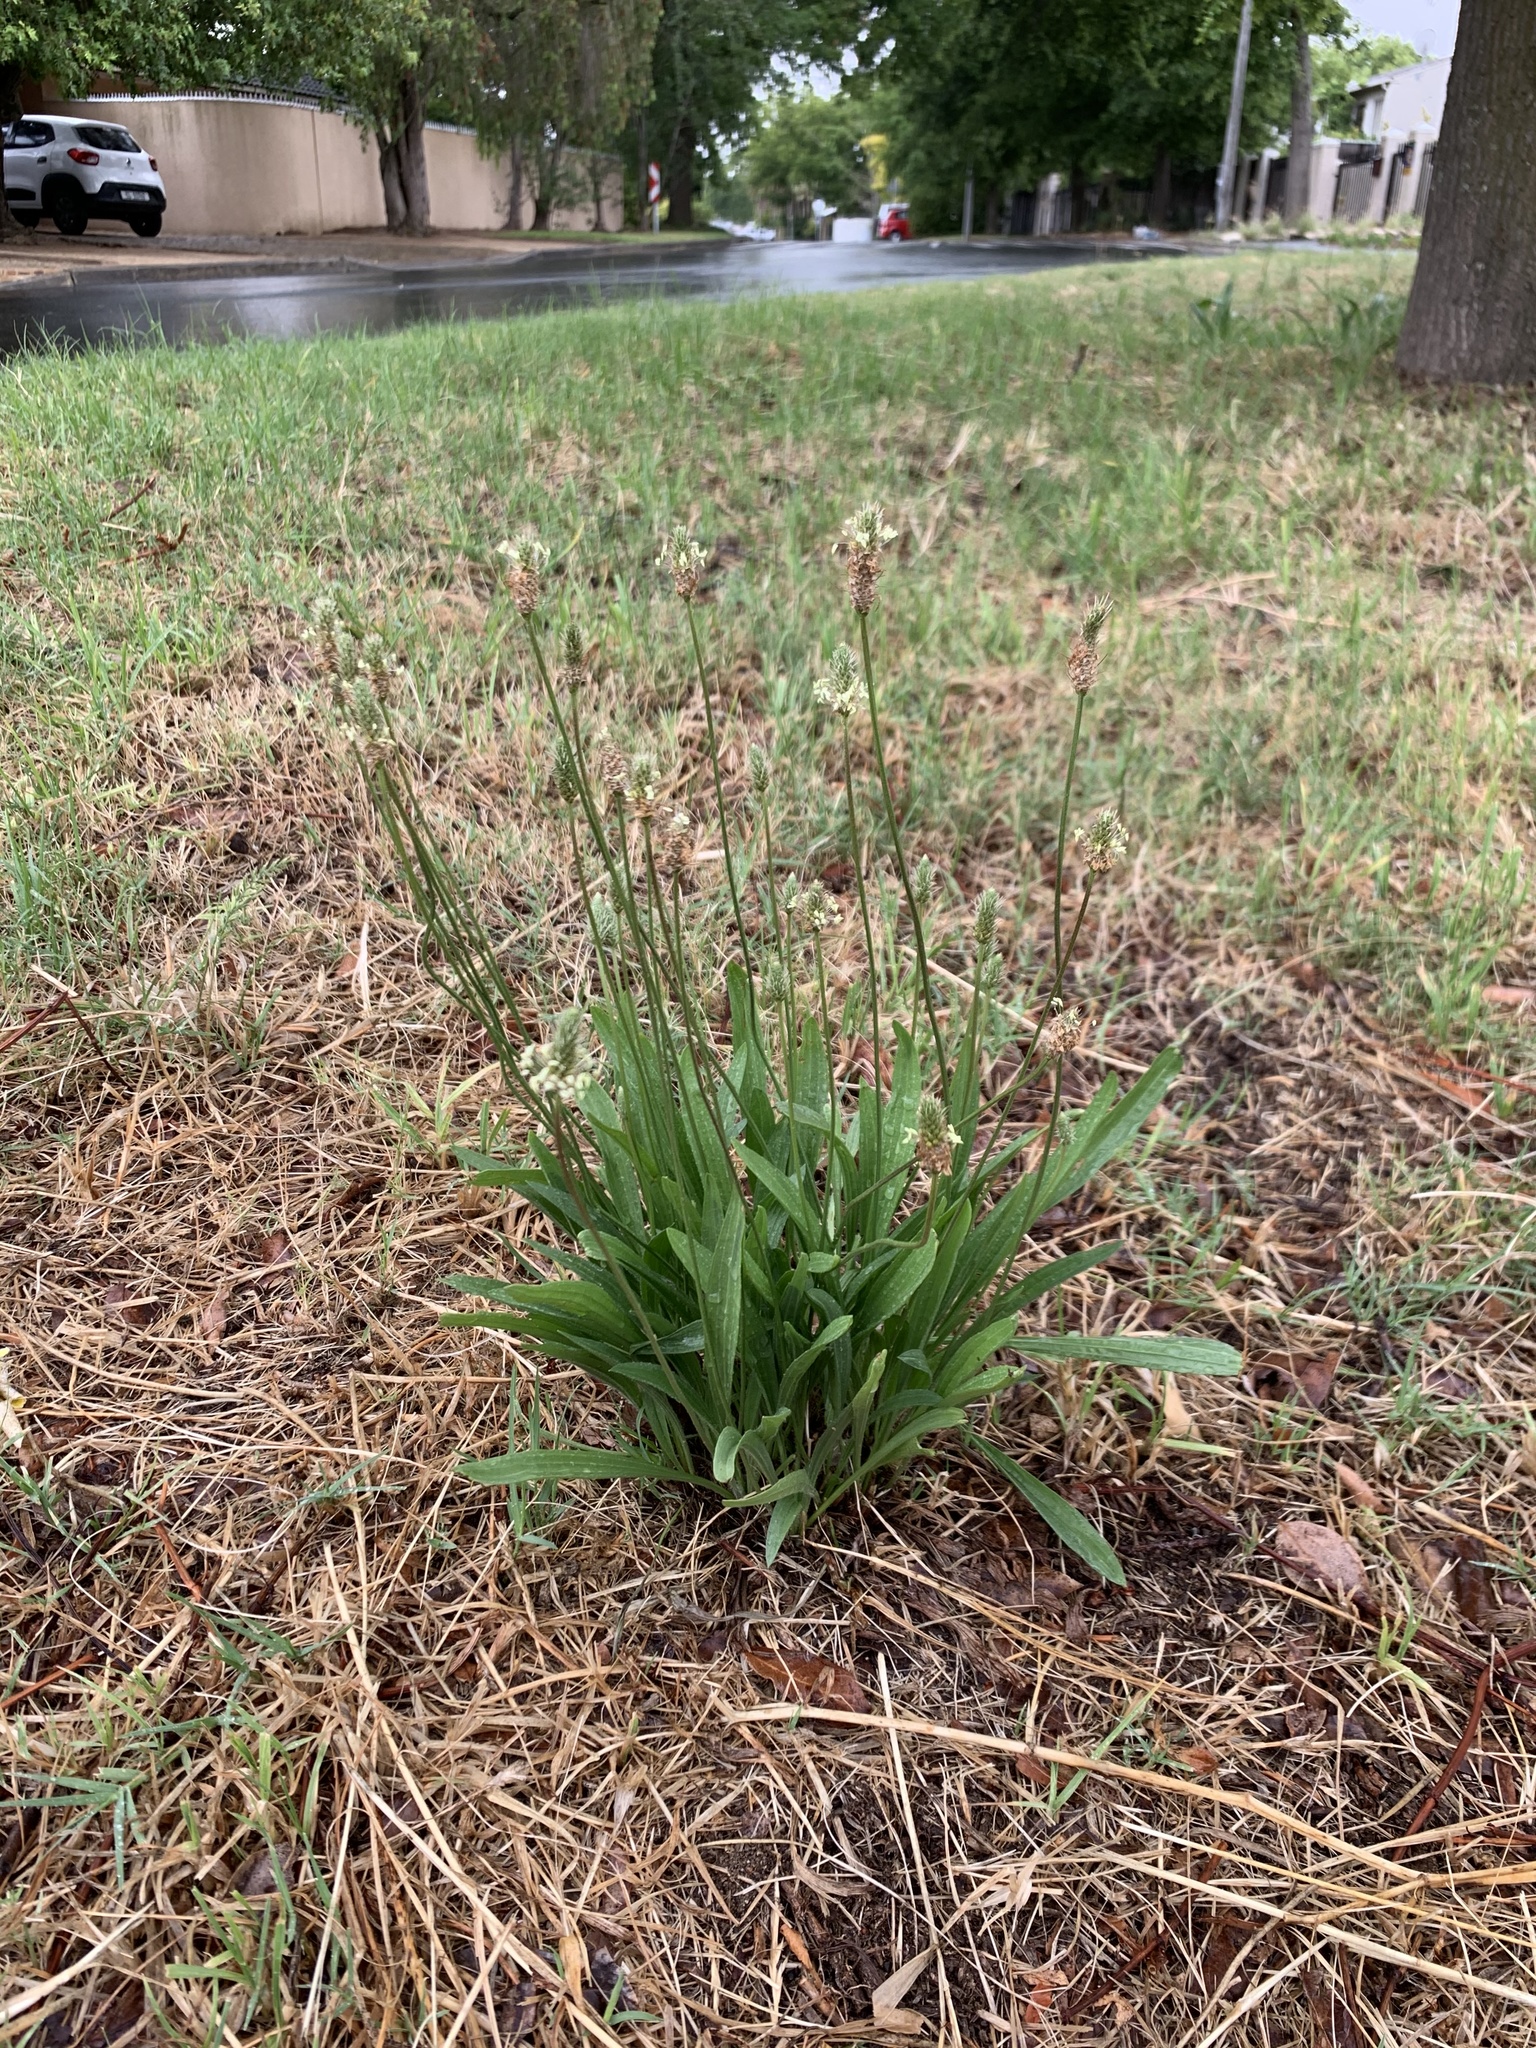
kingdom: Plantae
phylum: Tracheophyta
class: Magnoliopsida
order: Lamiales
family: Plantaginaceae
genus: Plantago
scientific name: Plantago lanceolata
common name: Ribwort plantain
